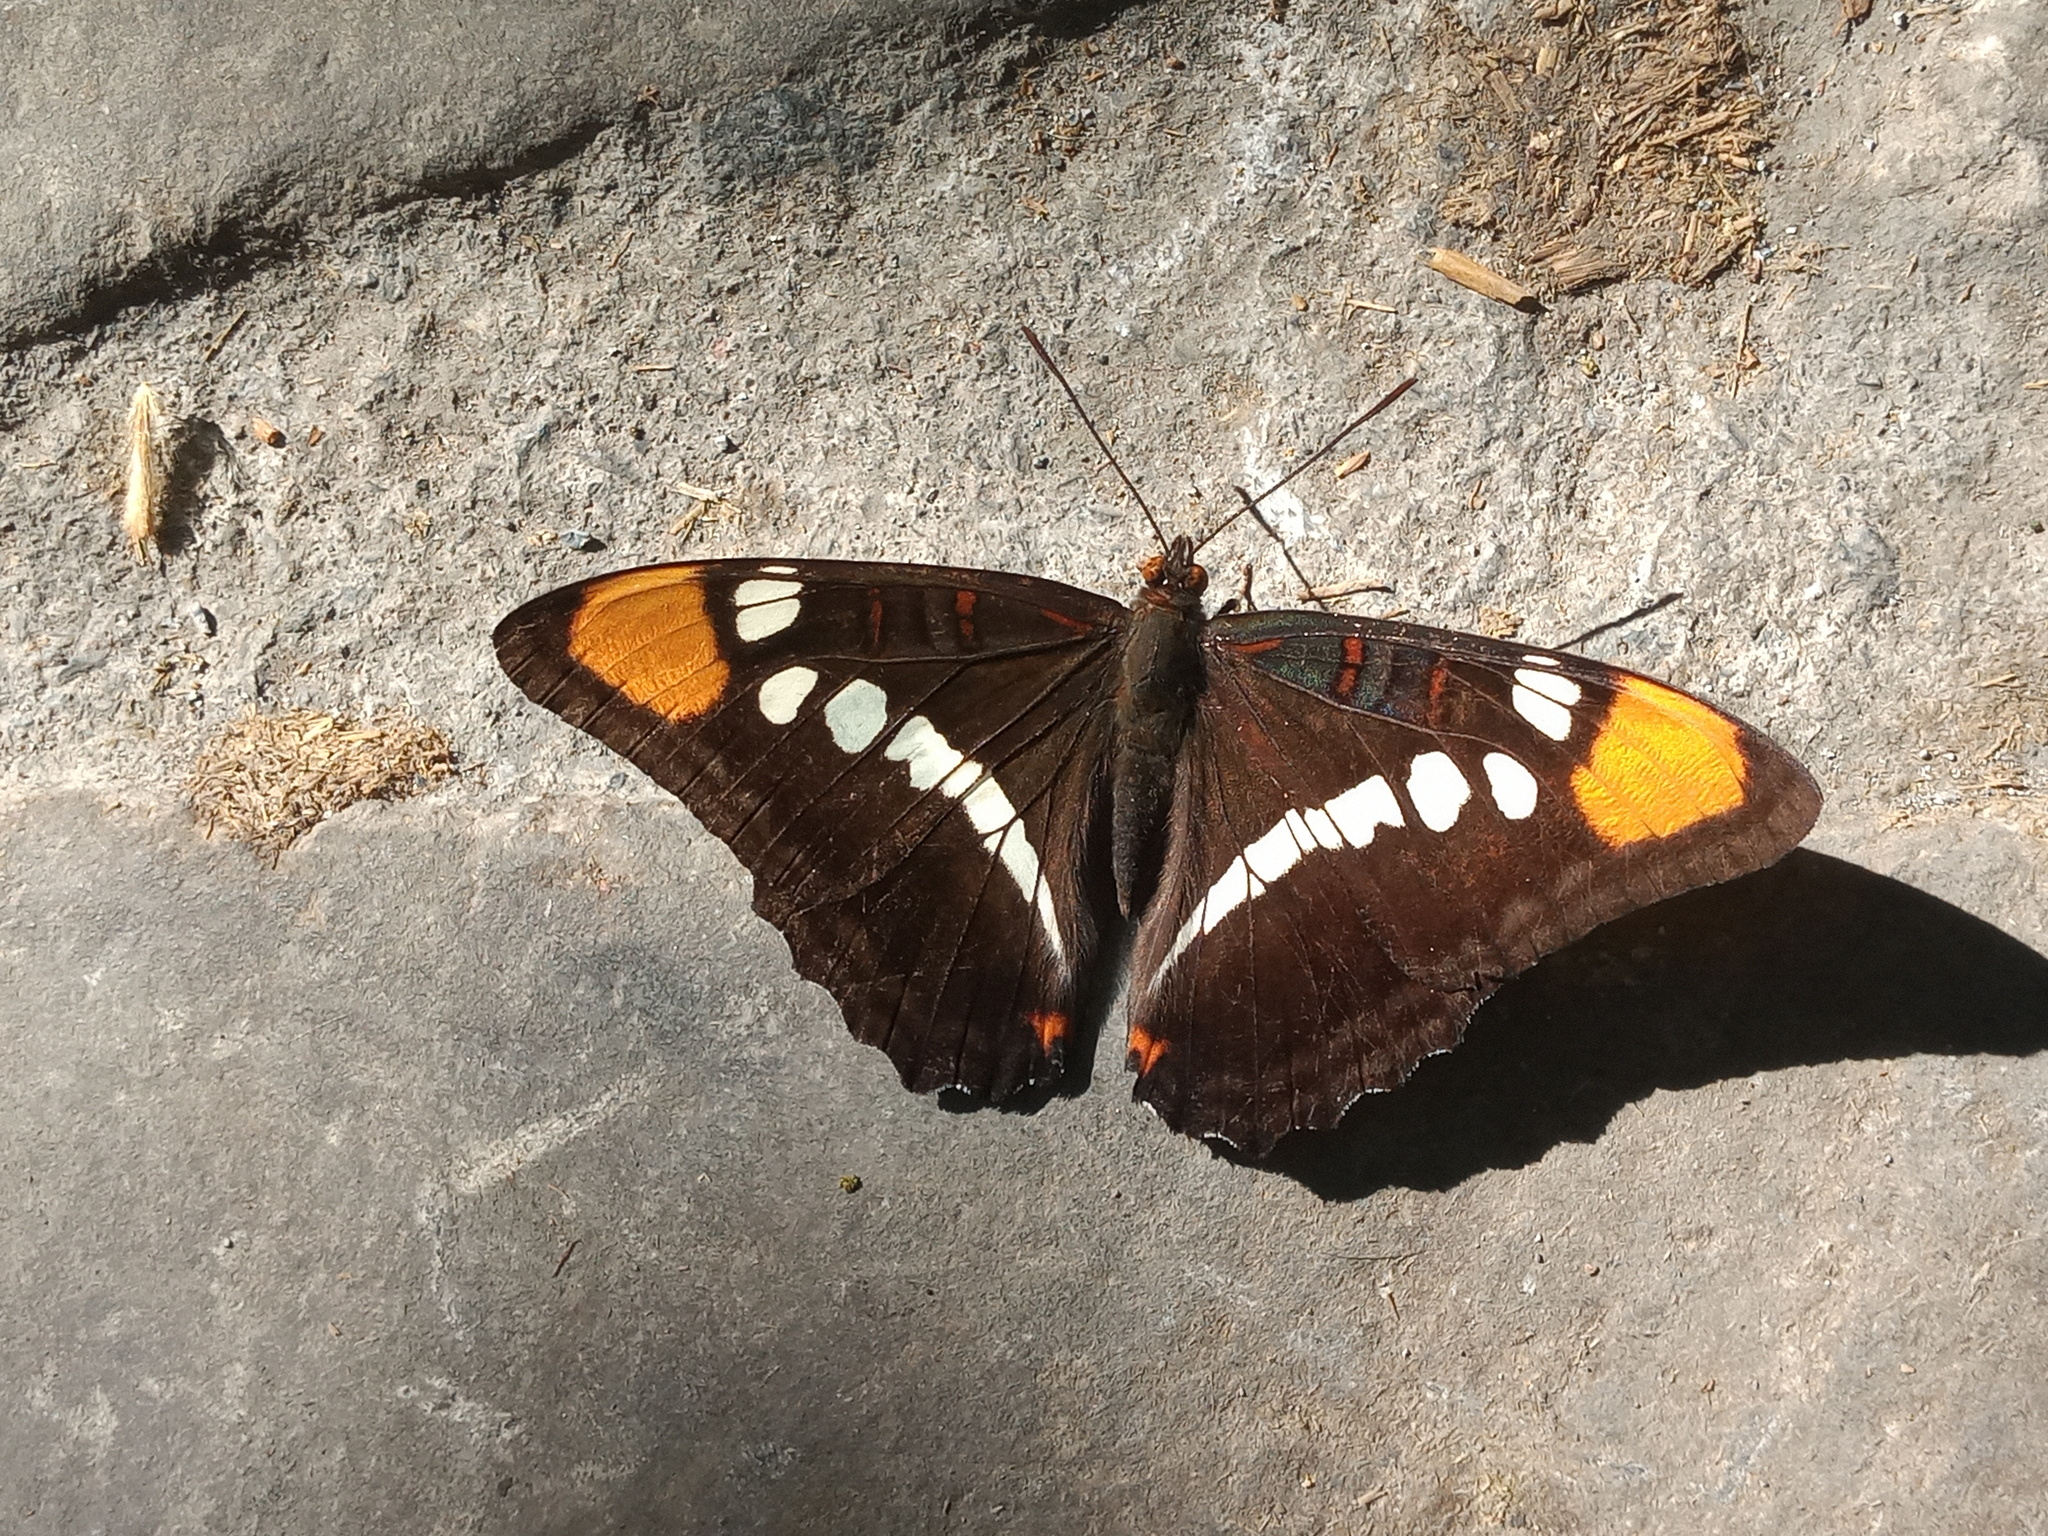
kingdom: Animalia
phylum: Arthropoda
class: Insecta
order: Lepidoptera
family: Nymphalidae
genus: Limenitis
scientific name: Limenitis bredowii
